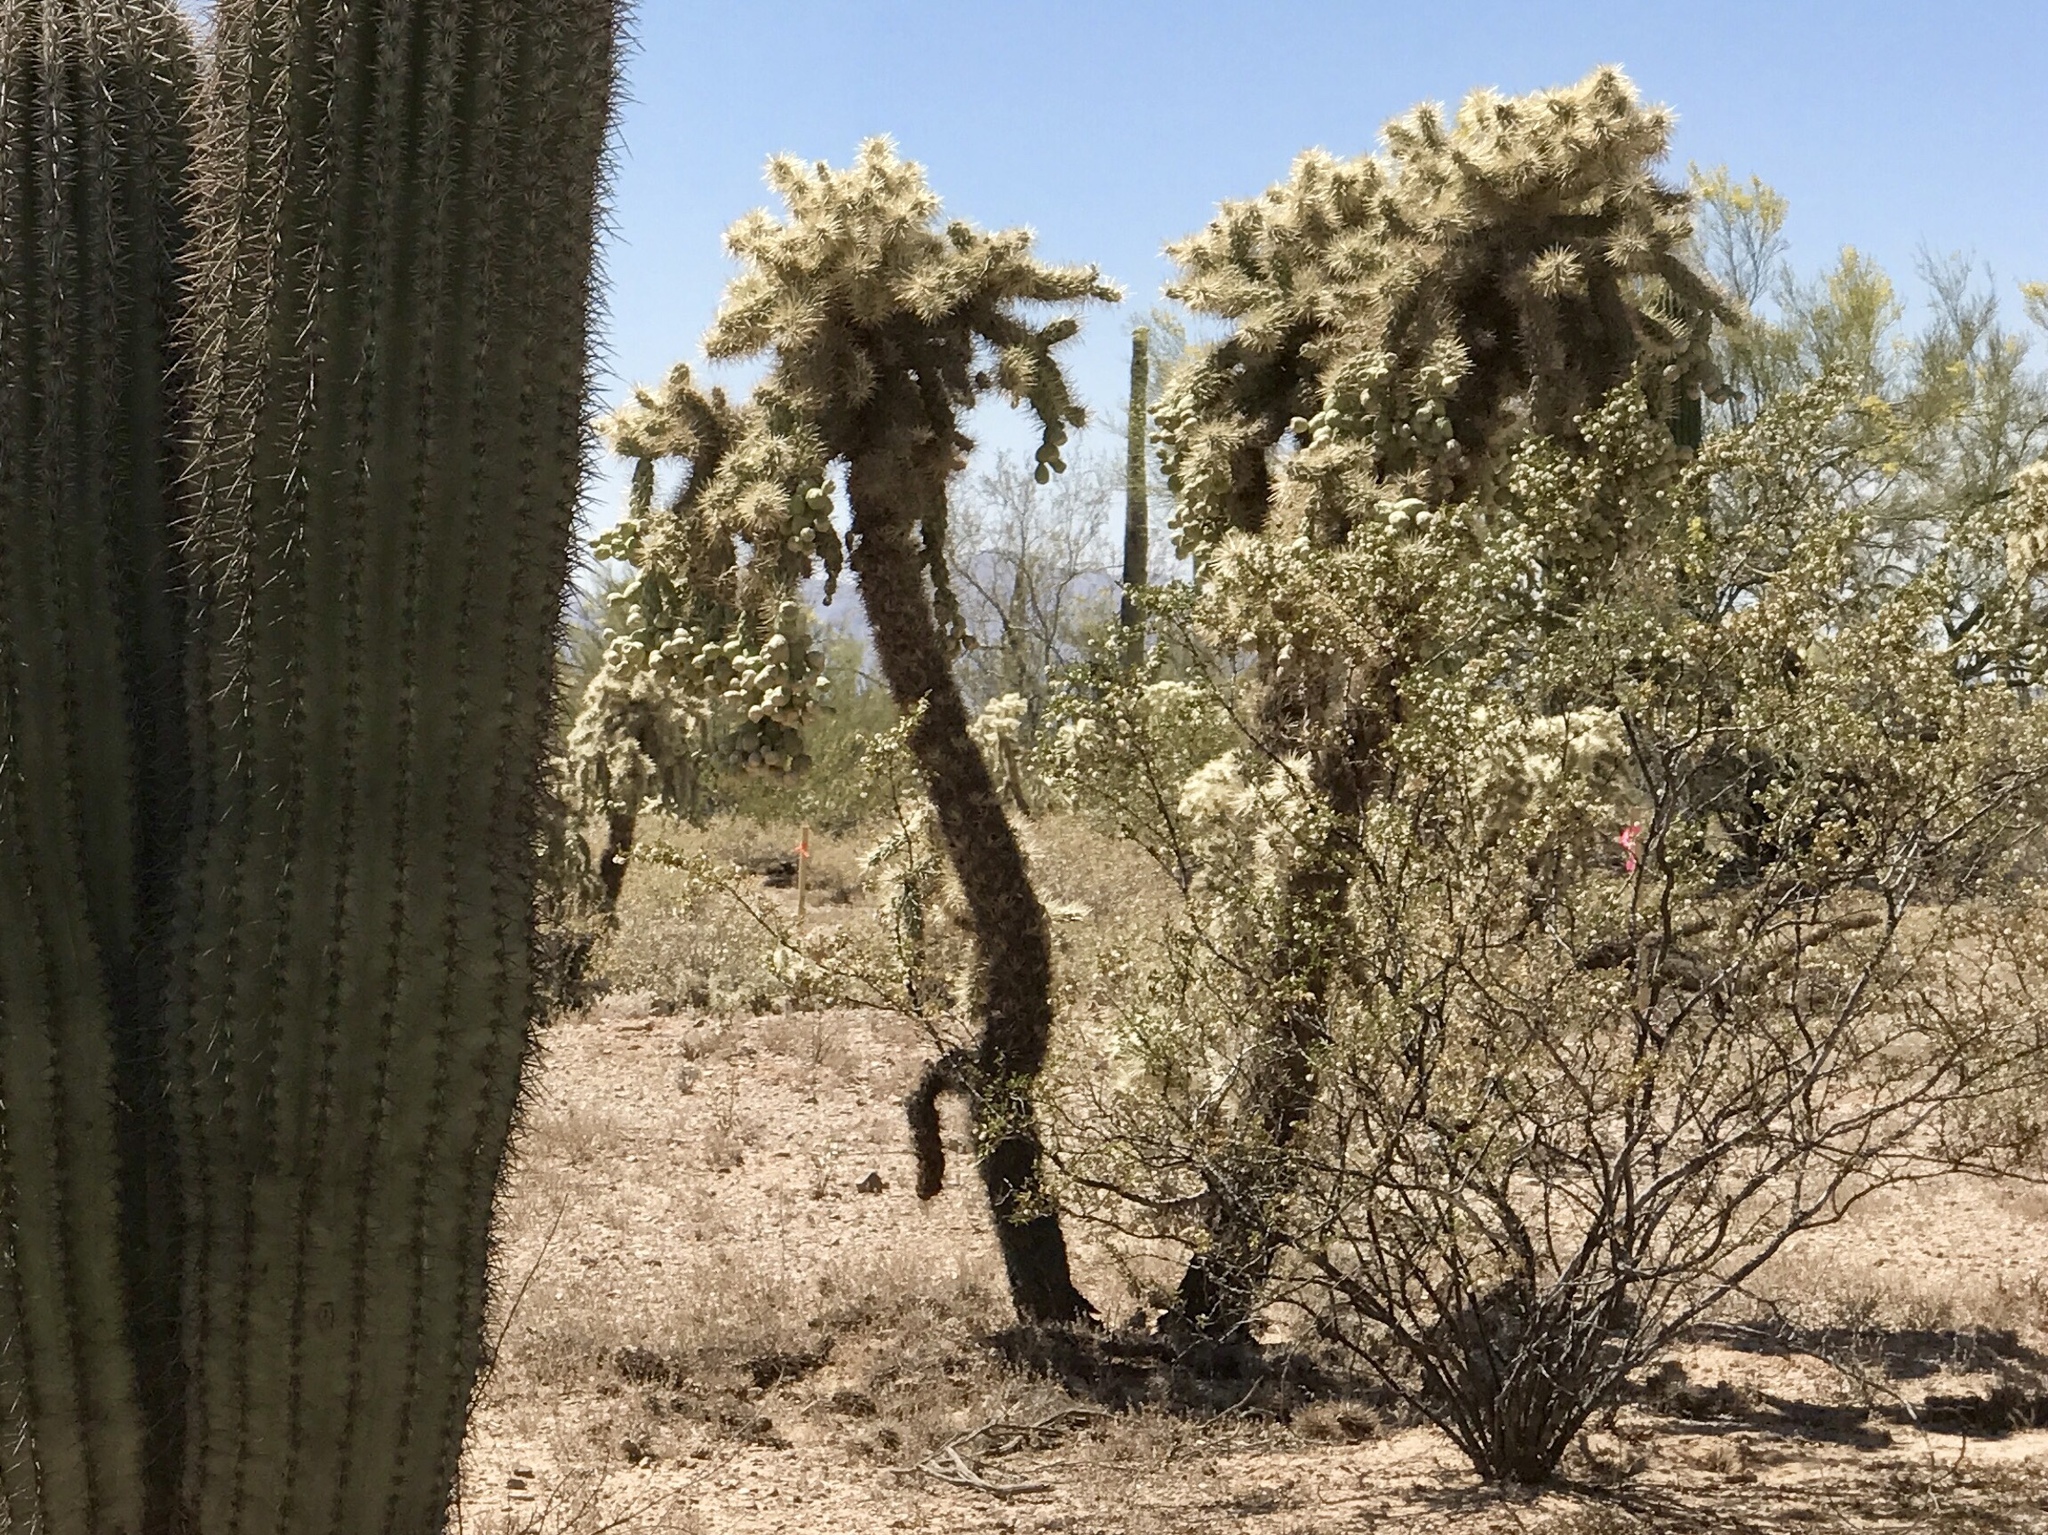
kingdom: Plantae
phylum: Tracheophyta
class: Magnoliopsida
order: Caryophyllales
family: Cactaceae
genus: Cylindropuntia
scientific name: Cylindropuntia fulgida
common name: Jumping cholla
